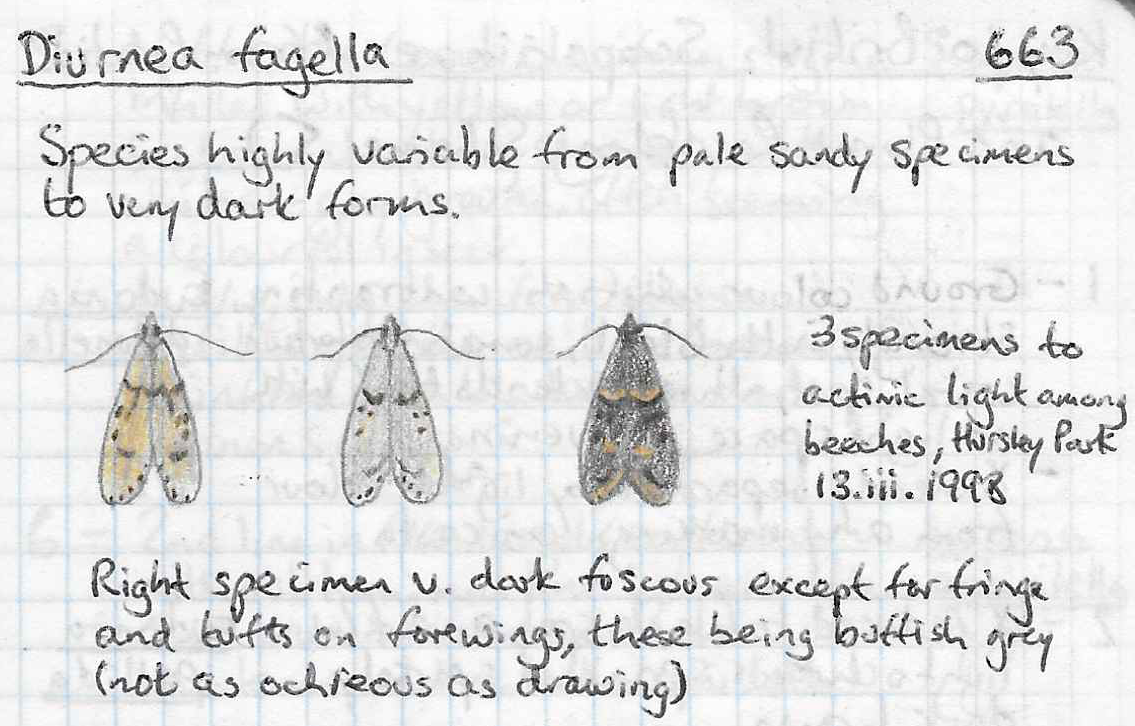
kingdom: Animalia
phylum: Arthropoda
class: Insecta
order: Lepidoptera
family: Lypusidae
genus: Diurnea
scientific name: Diurnea fagella
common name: March tubic
